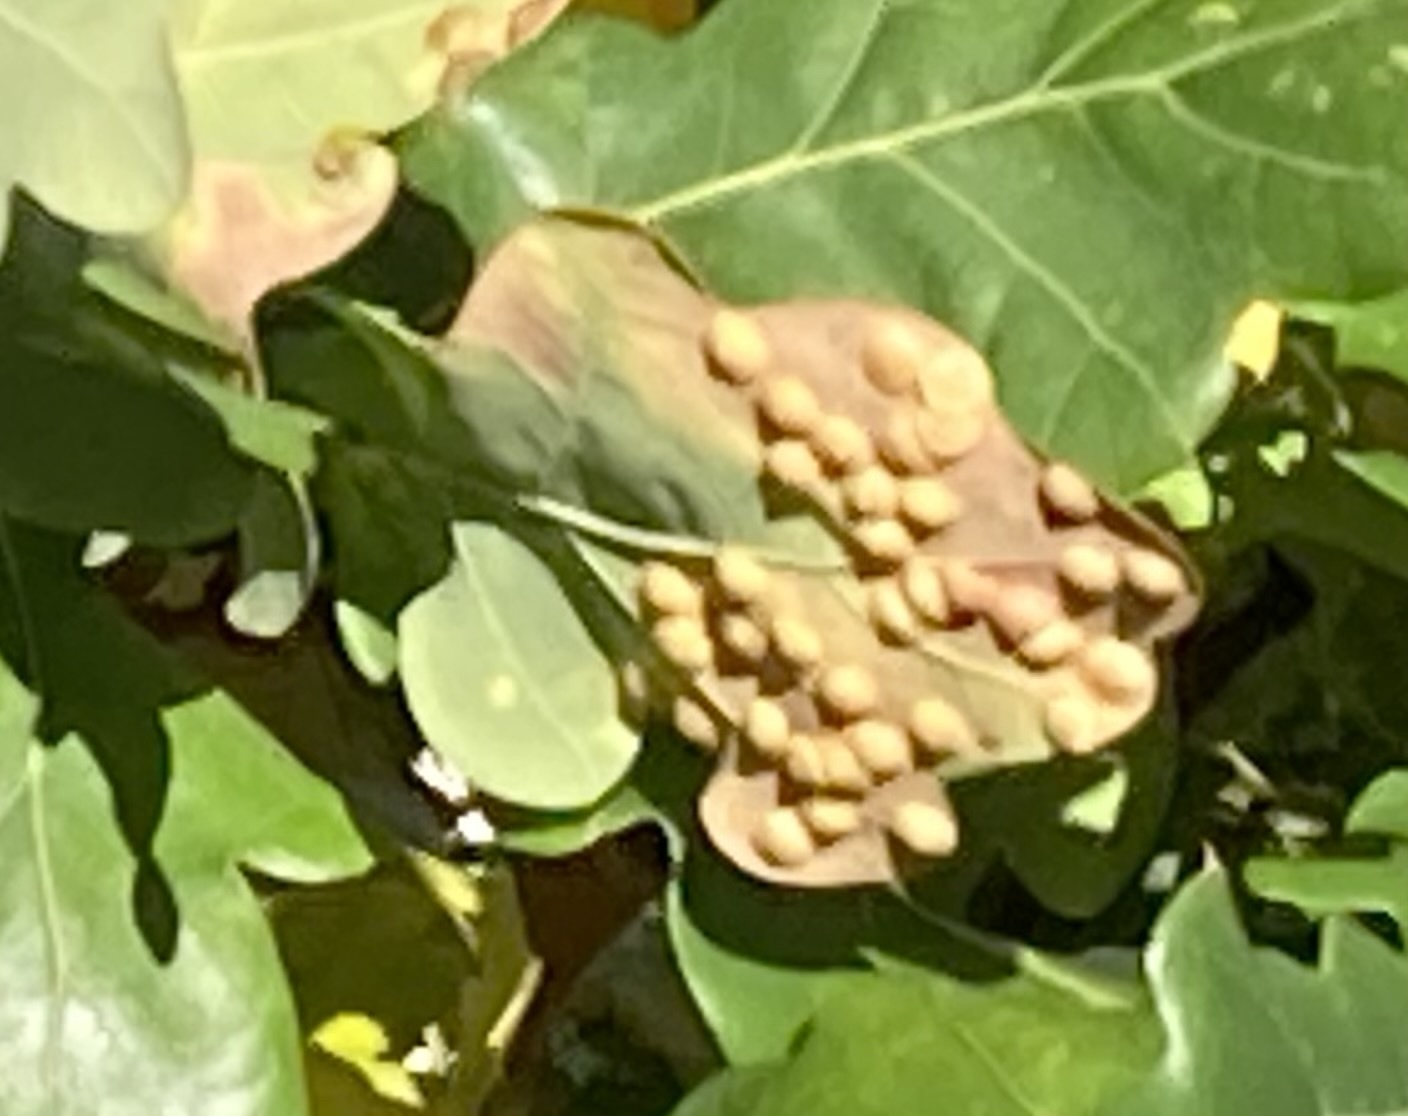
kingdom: Animalia
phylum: Arthropoda
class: Insecta
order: Hymenoptera
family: Cynipidae
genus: Neuroterus
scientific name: Neuroterus quercusbaccarum
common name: Common spangle gall
